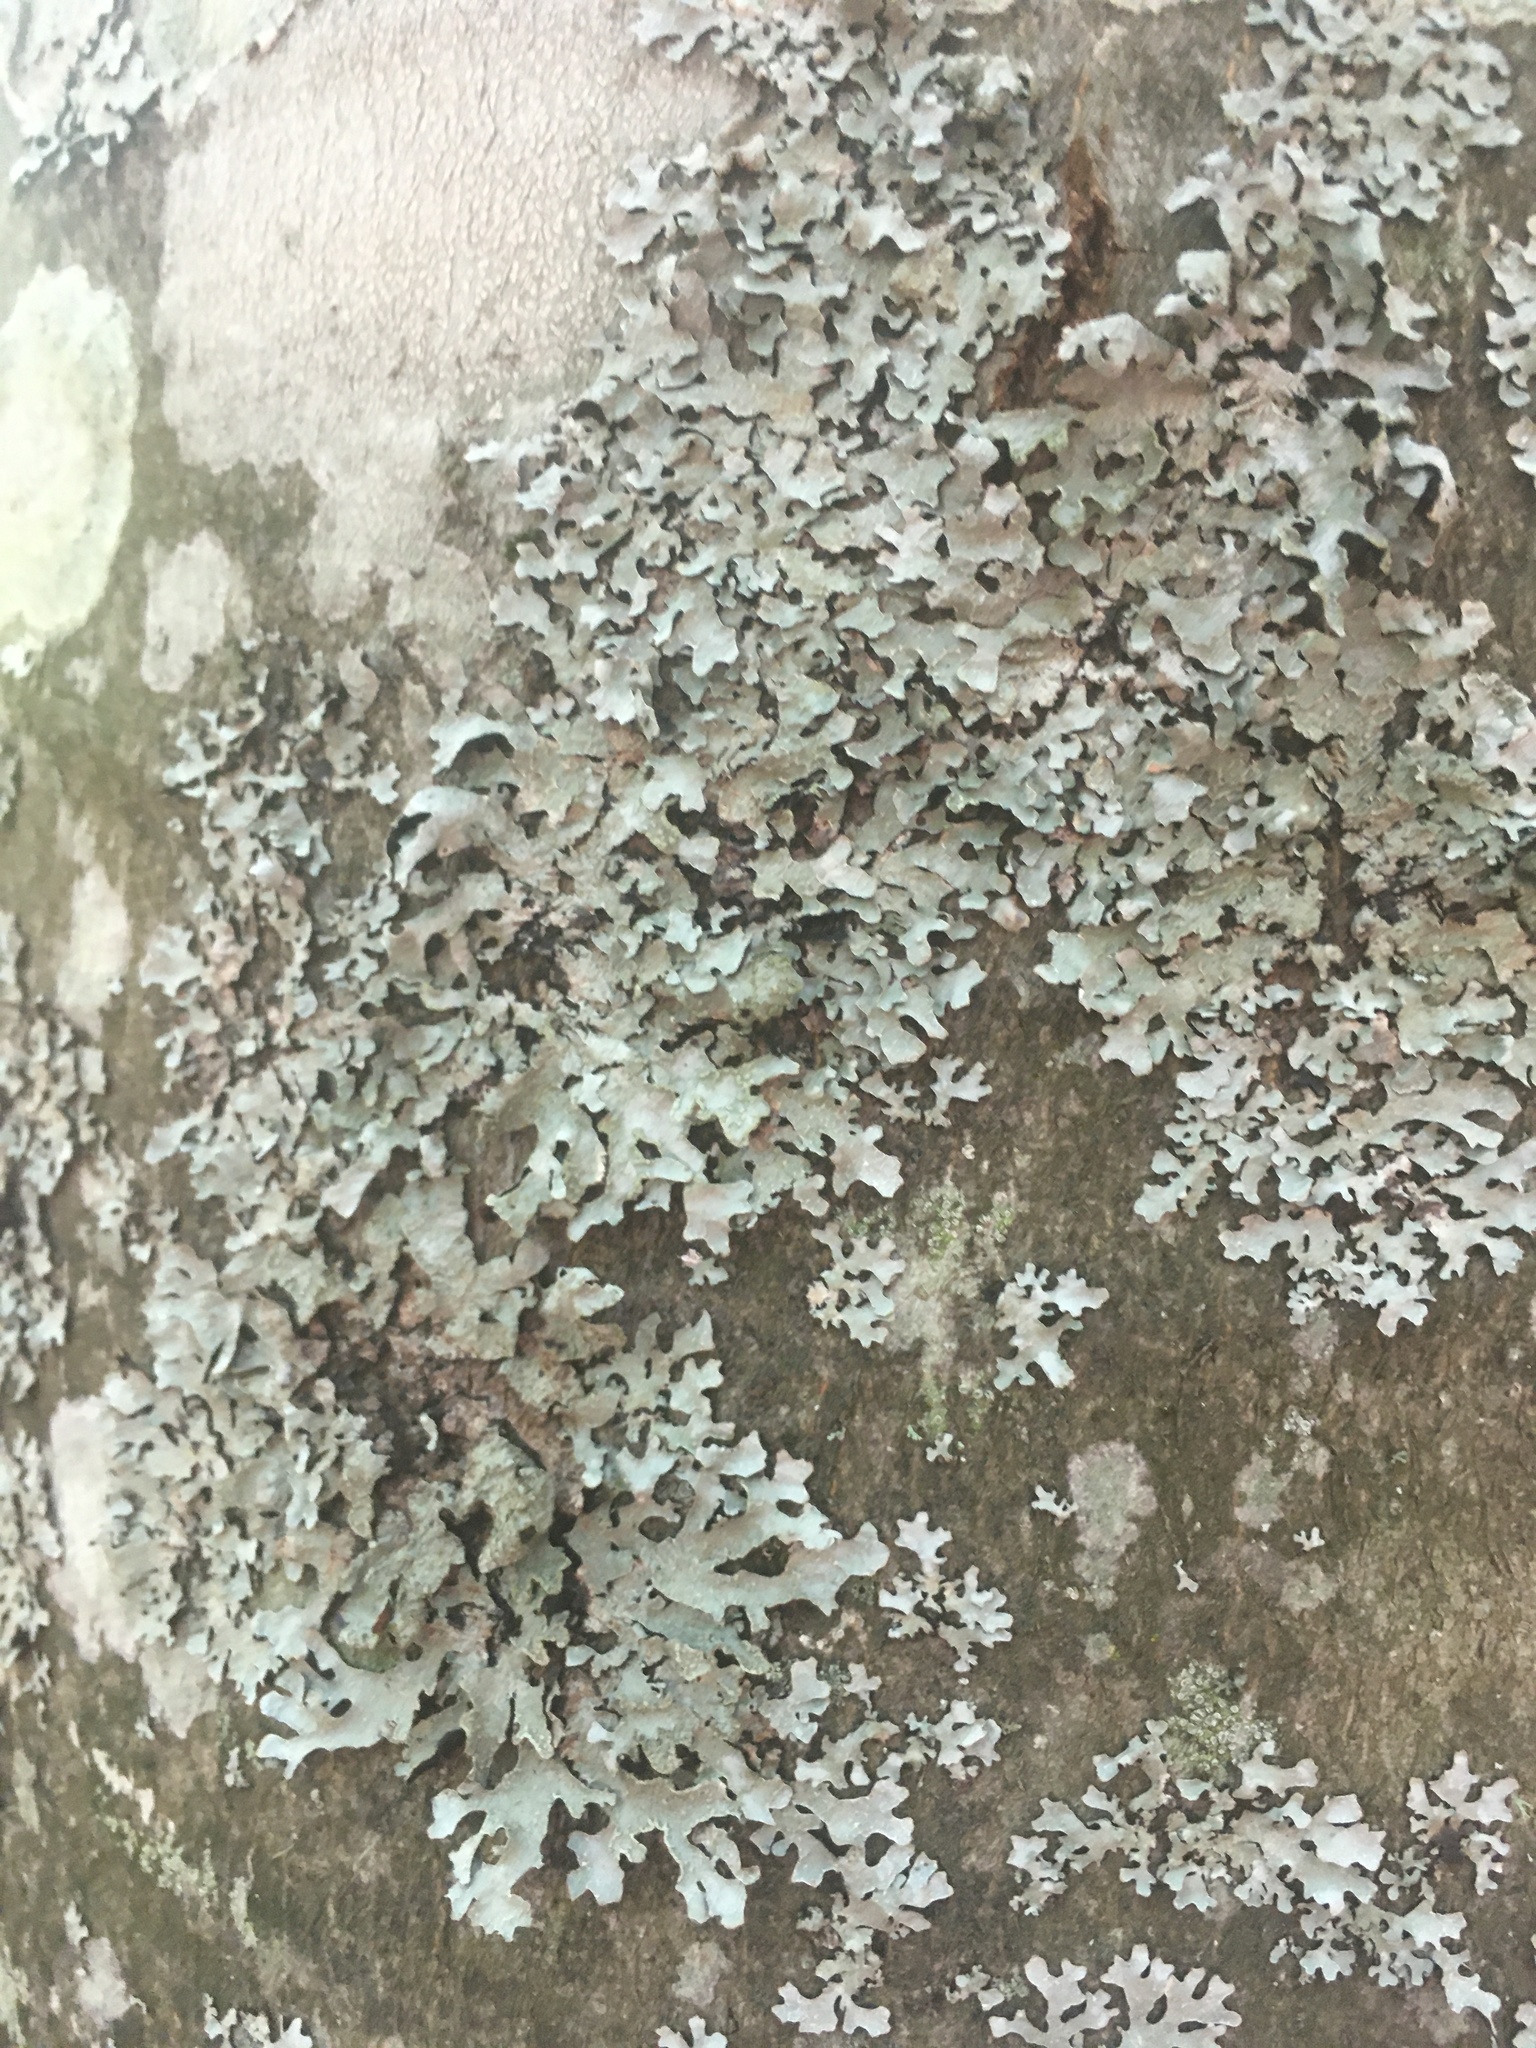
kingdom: Fungi
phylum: Ascomycota
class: Lecanoromycetes
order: Lecanorales
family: Parmeliaceae
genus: Parmelia
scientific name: Parmelia sulcata
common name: Netted shield lichen
